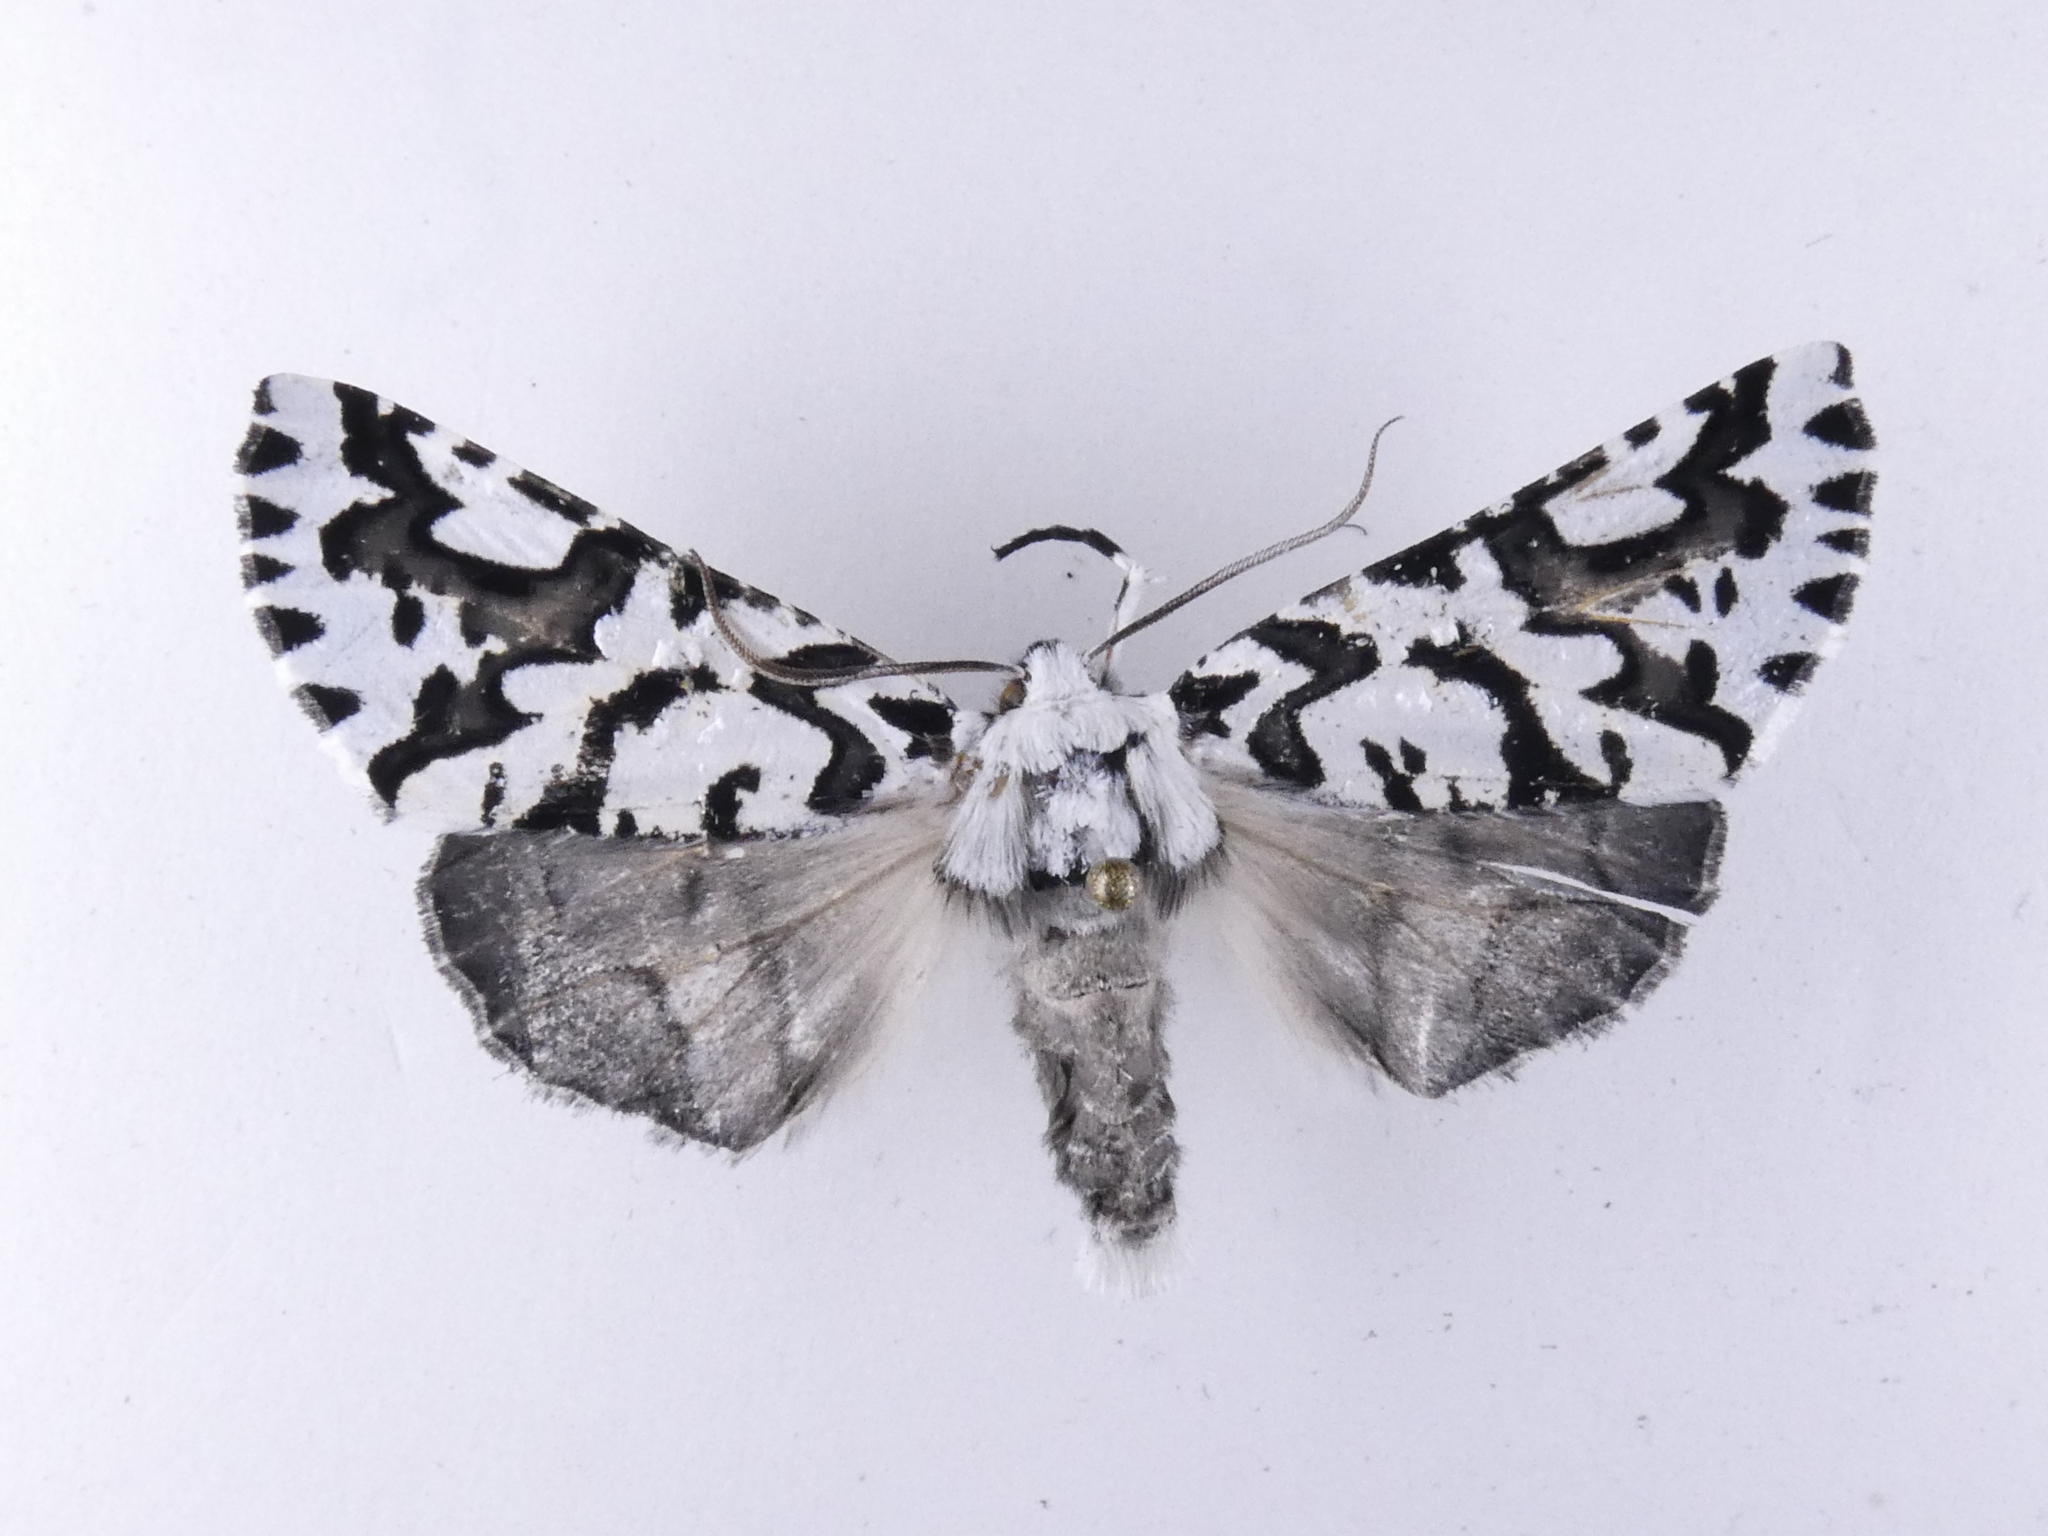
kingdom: Animalia
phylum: Arthropoda
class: Insecta
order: Lepidoptera
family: Geometridae
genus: Declana
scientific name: Declana
